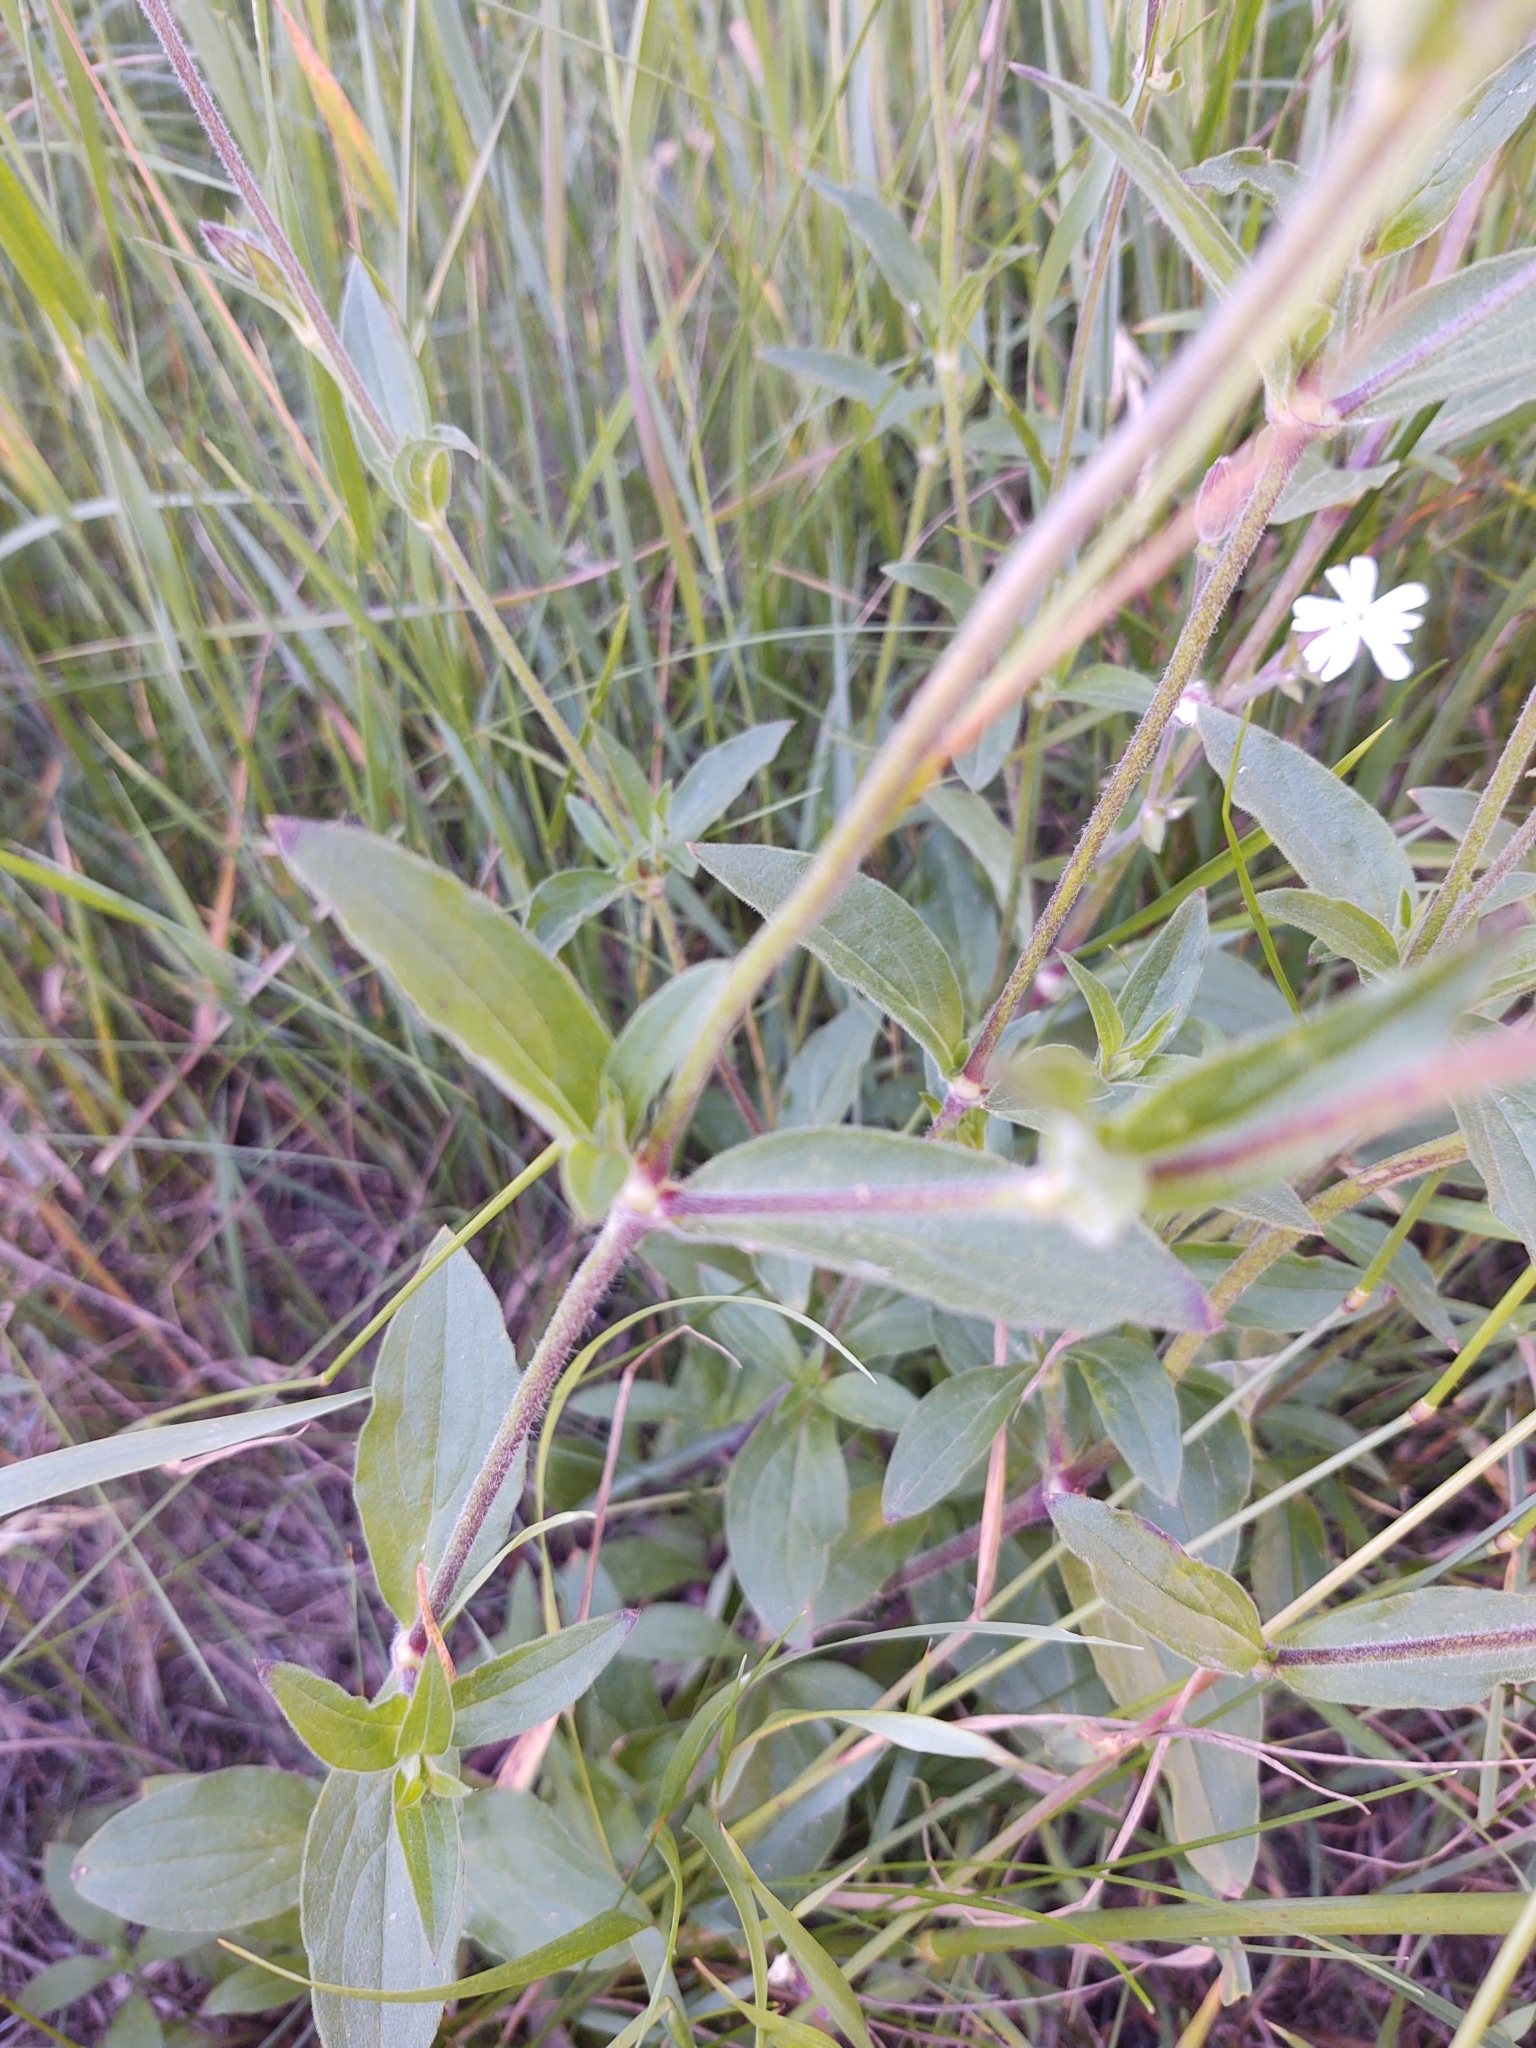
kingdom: Plantae
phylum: Tracheophyta
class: Magnoliopsida
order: Caryophyllales
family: Caryophyllaceae
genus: Silene
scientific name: Silene latifolia
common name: White campion
